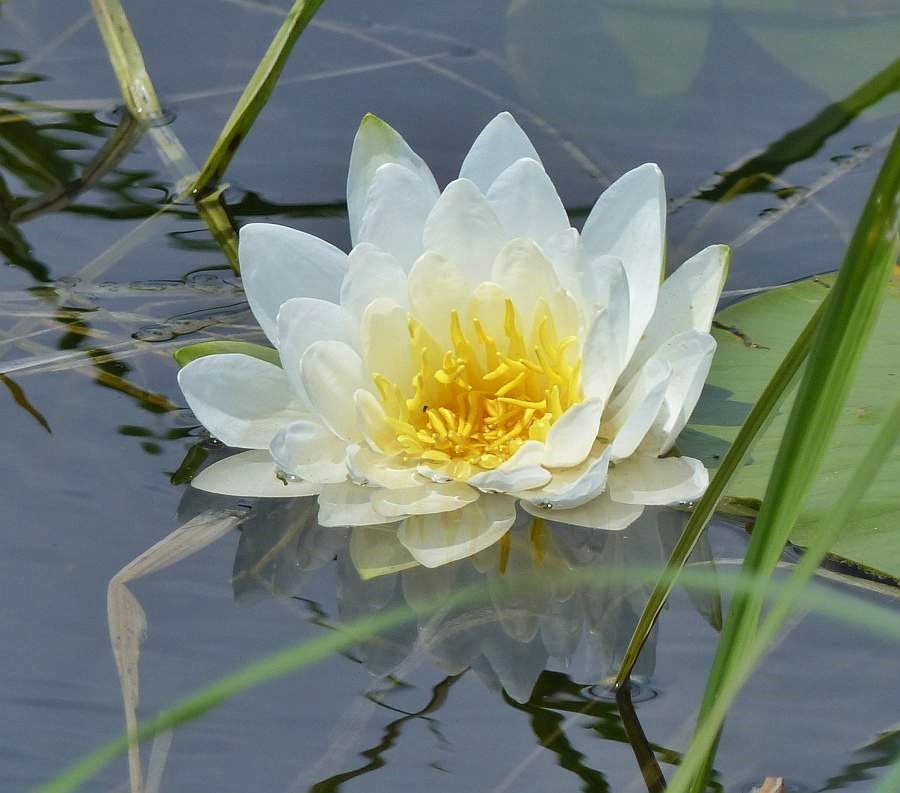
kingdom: Plantae
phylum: Tracheophyta
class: Magnoliopsida
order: Nymphaeales
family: Nymphaeaceae
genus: Nymphaea
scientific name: Nymphaea odorata
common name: Fragrant water-lily
